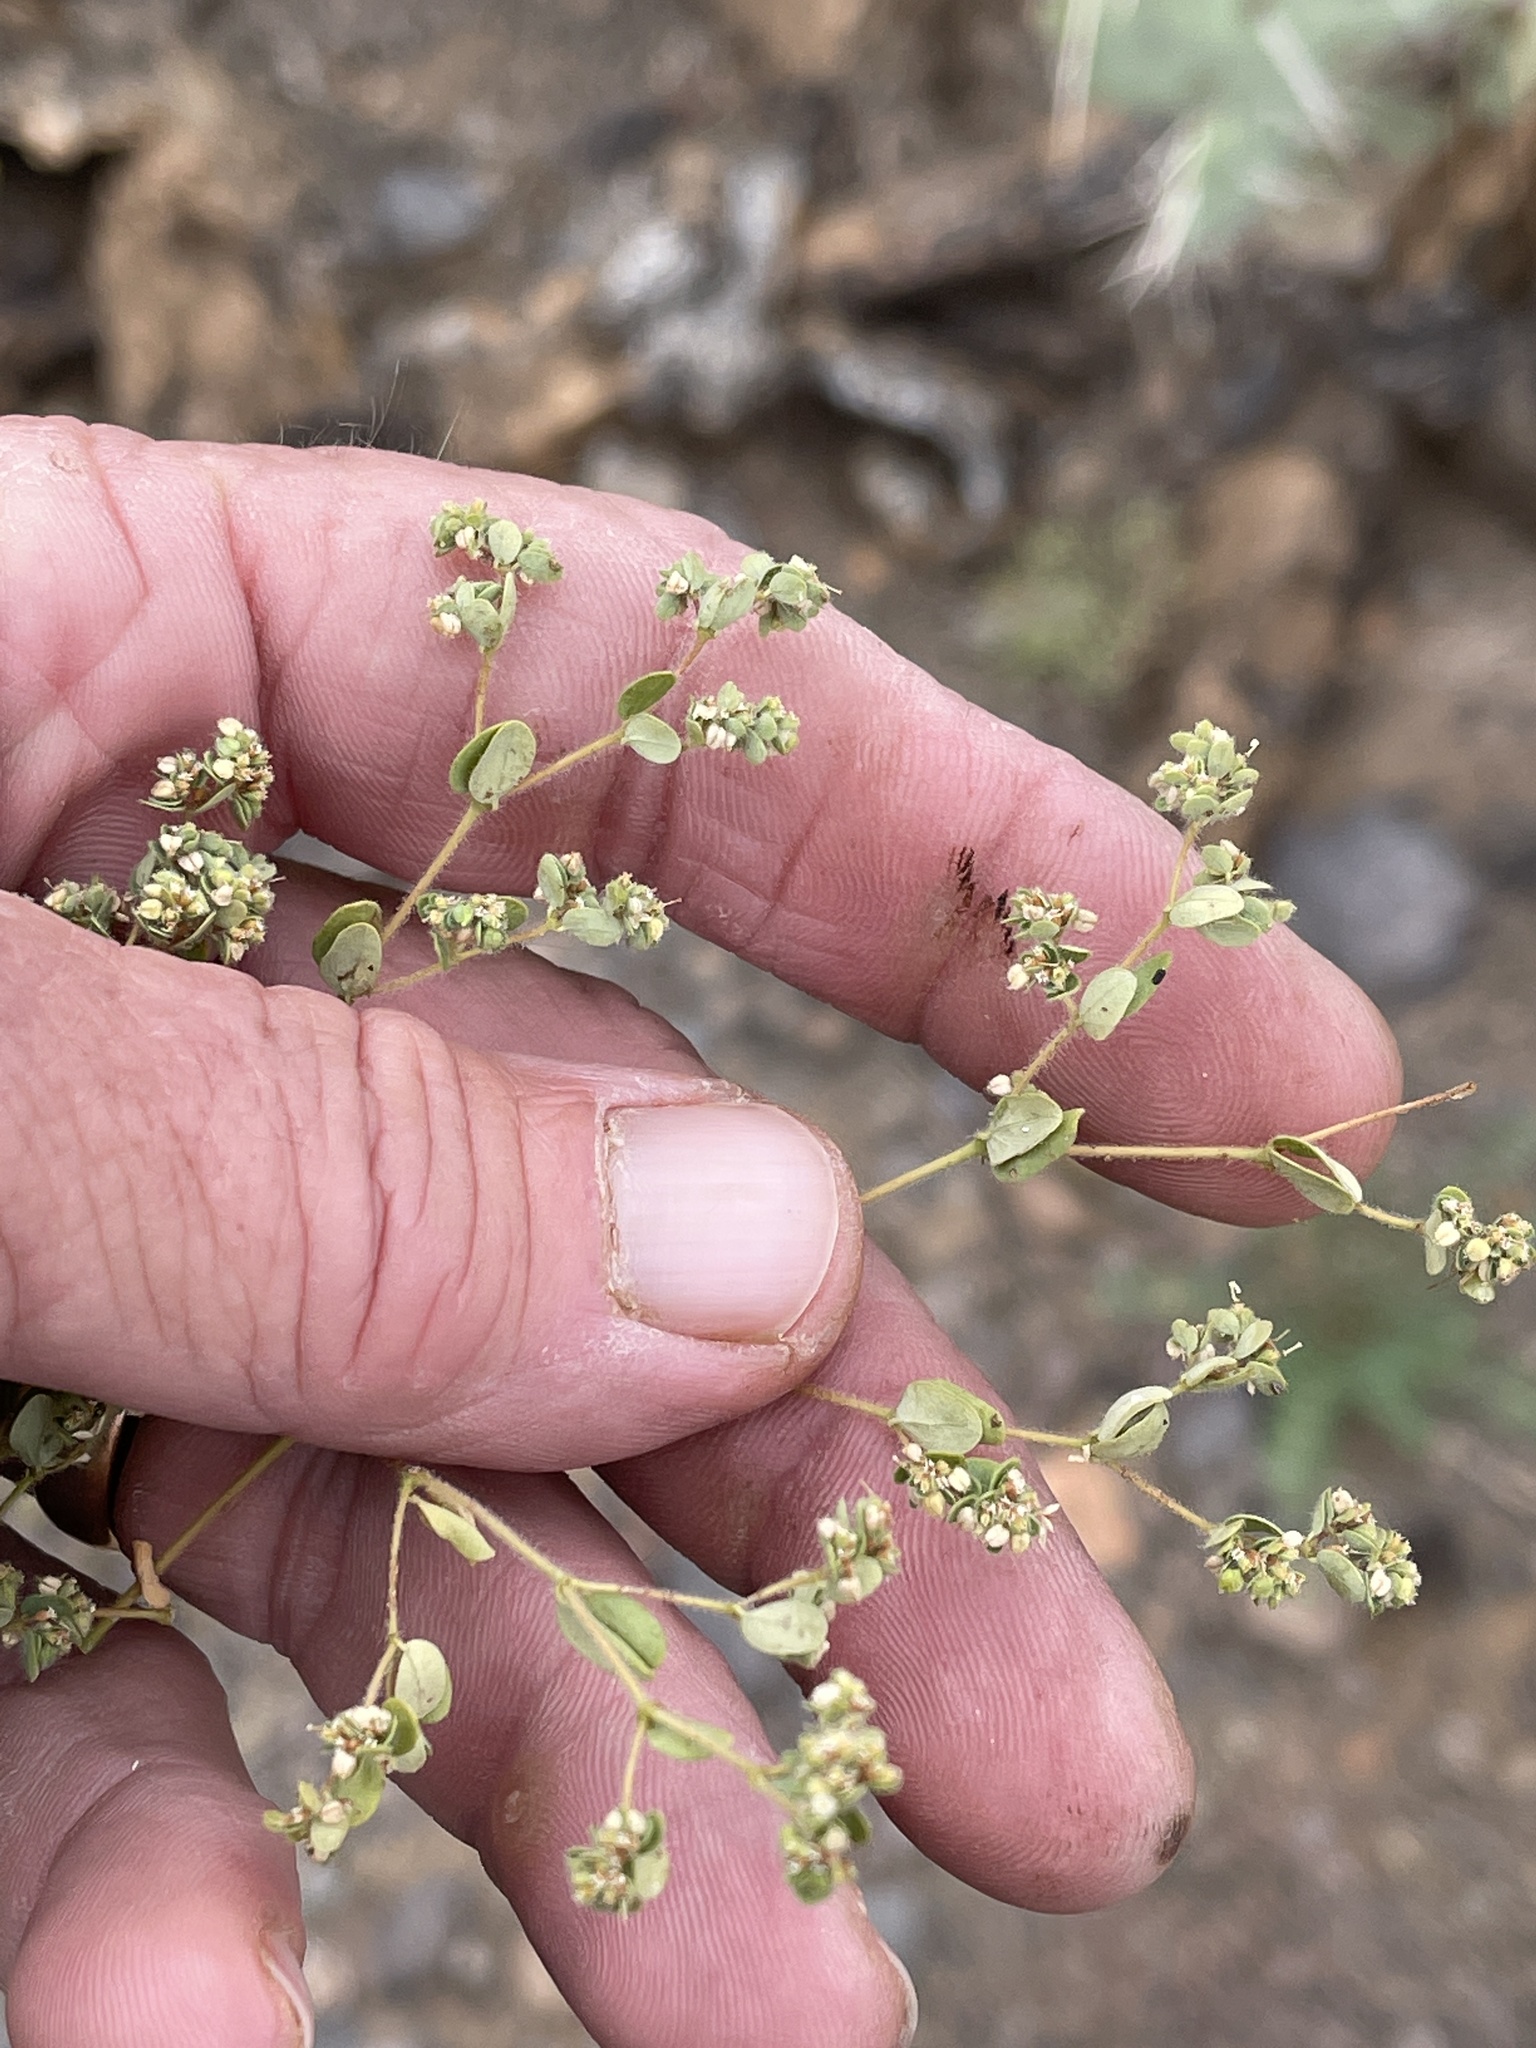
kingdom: Plantae
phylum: Tracheophyta
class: Magnoliopsida
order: Malpighiales
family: Euphorbiaceae
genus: Euphorbia
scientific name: Euphorbia setiloba
